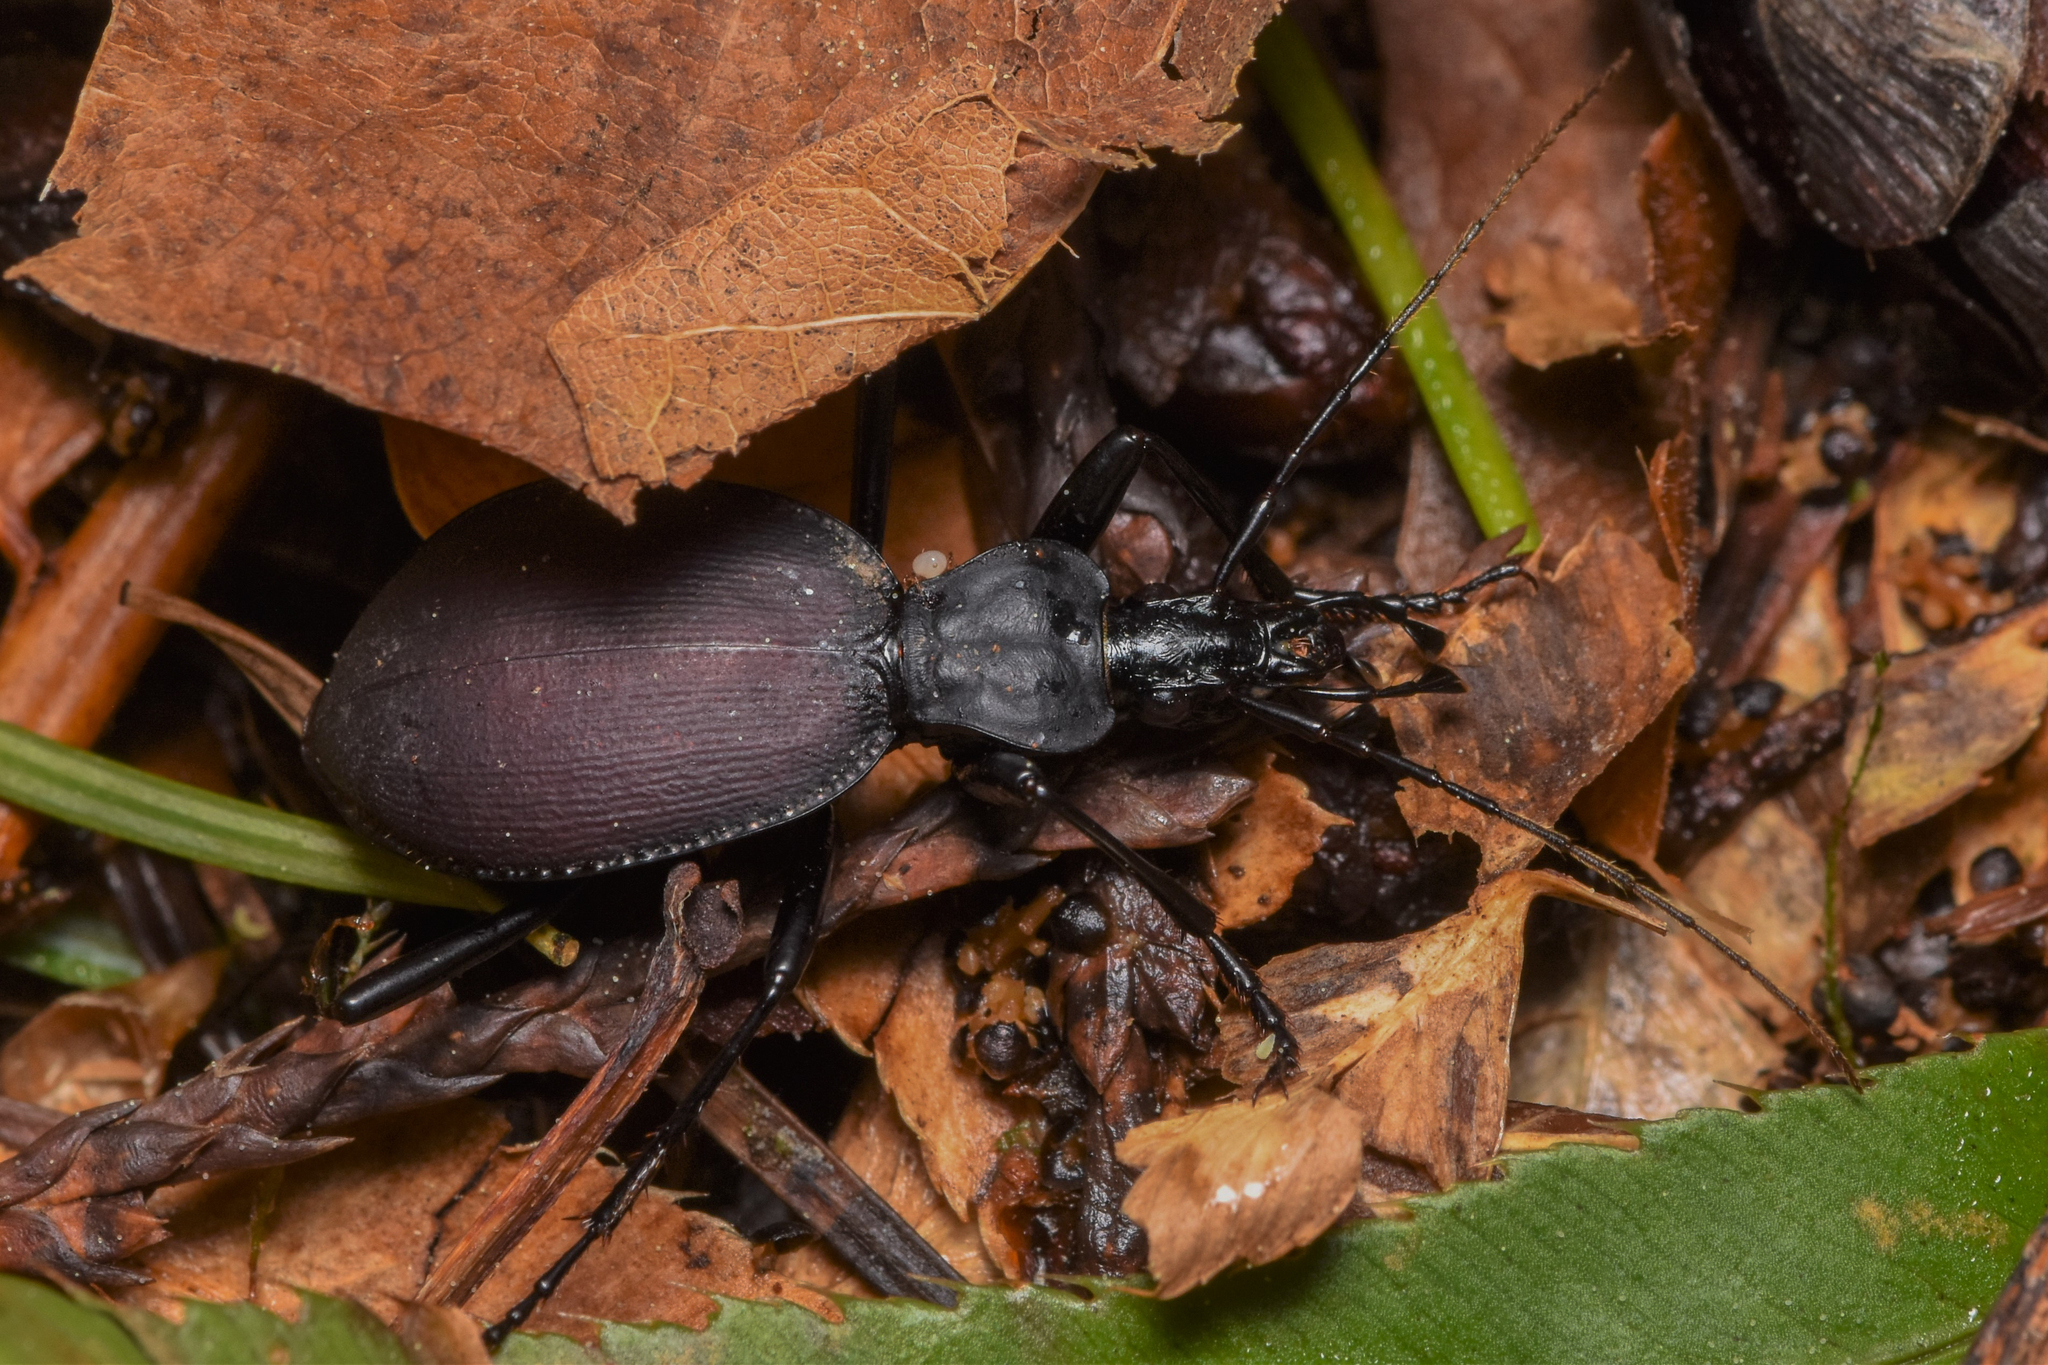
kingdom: Animalia
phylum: Arthropoda
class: Insecta
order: Coleoptera
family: Carabidae
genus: Scaphinotus
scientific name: Scaphinotus angusticollis
